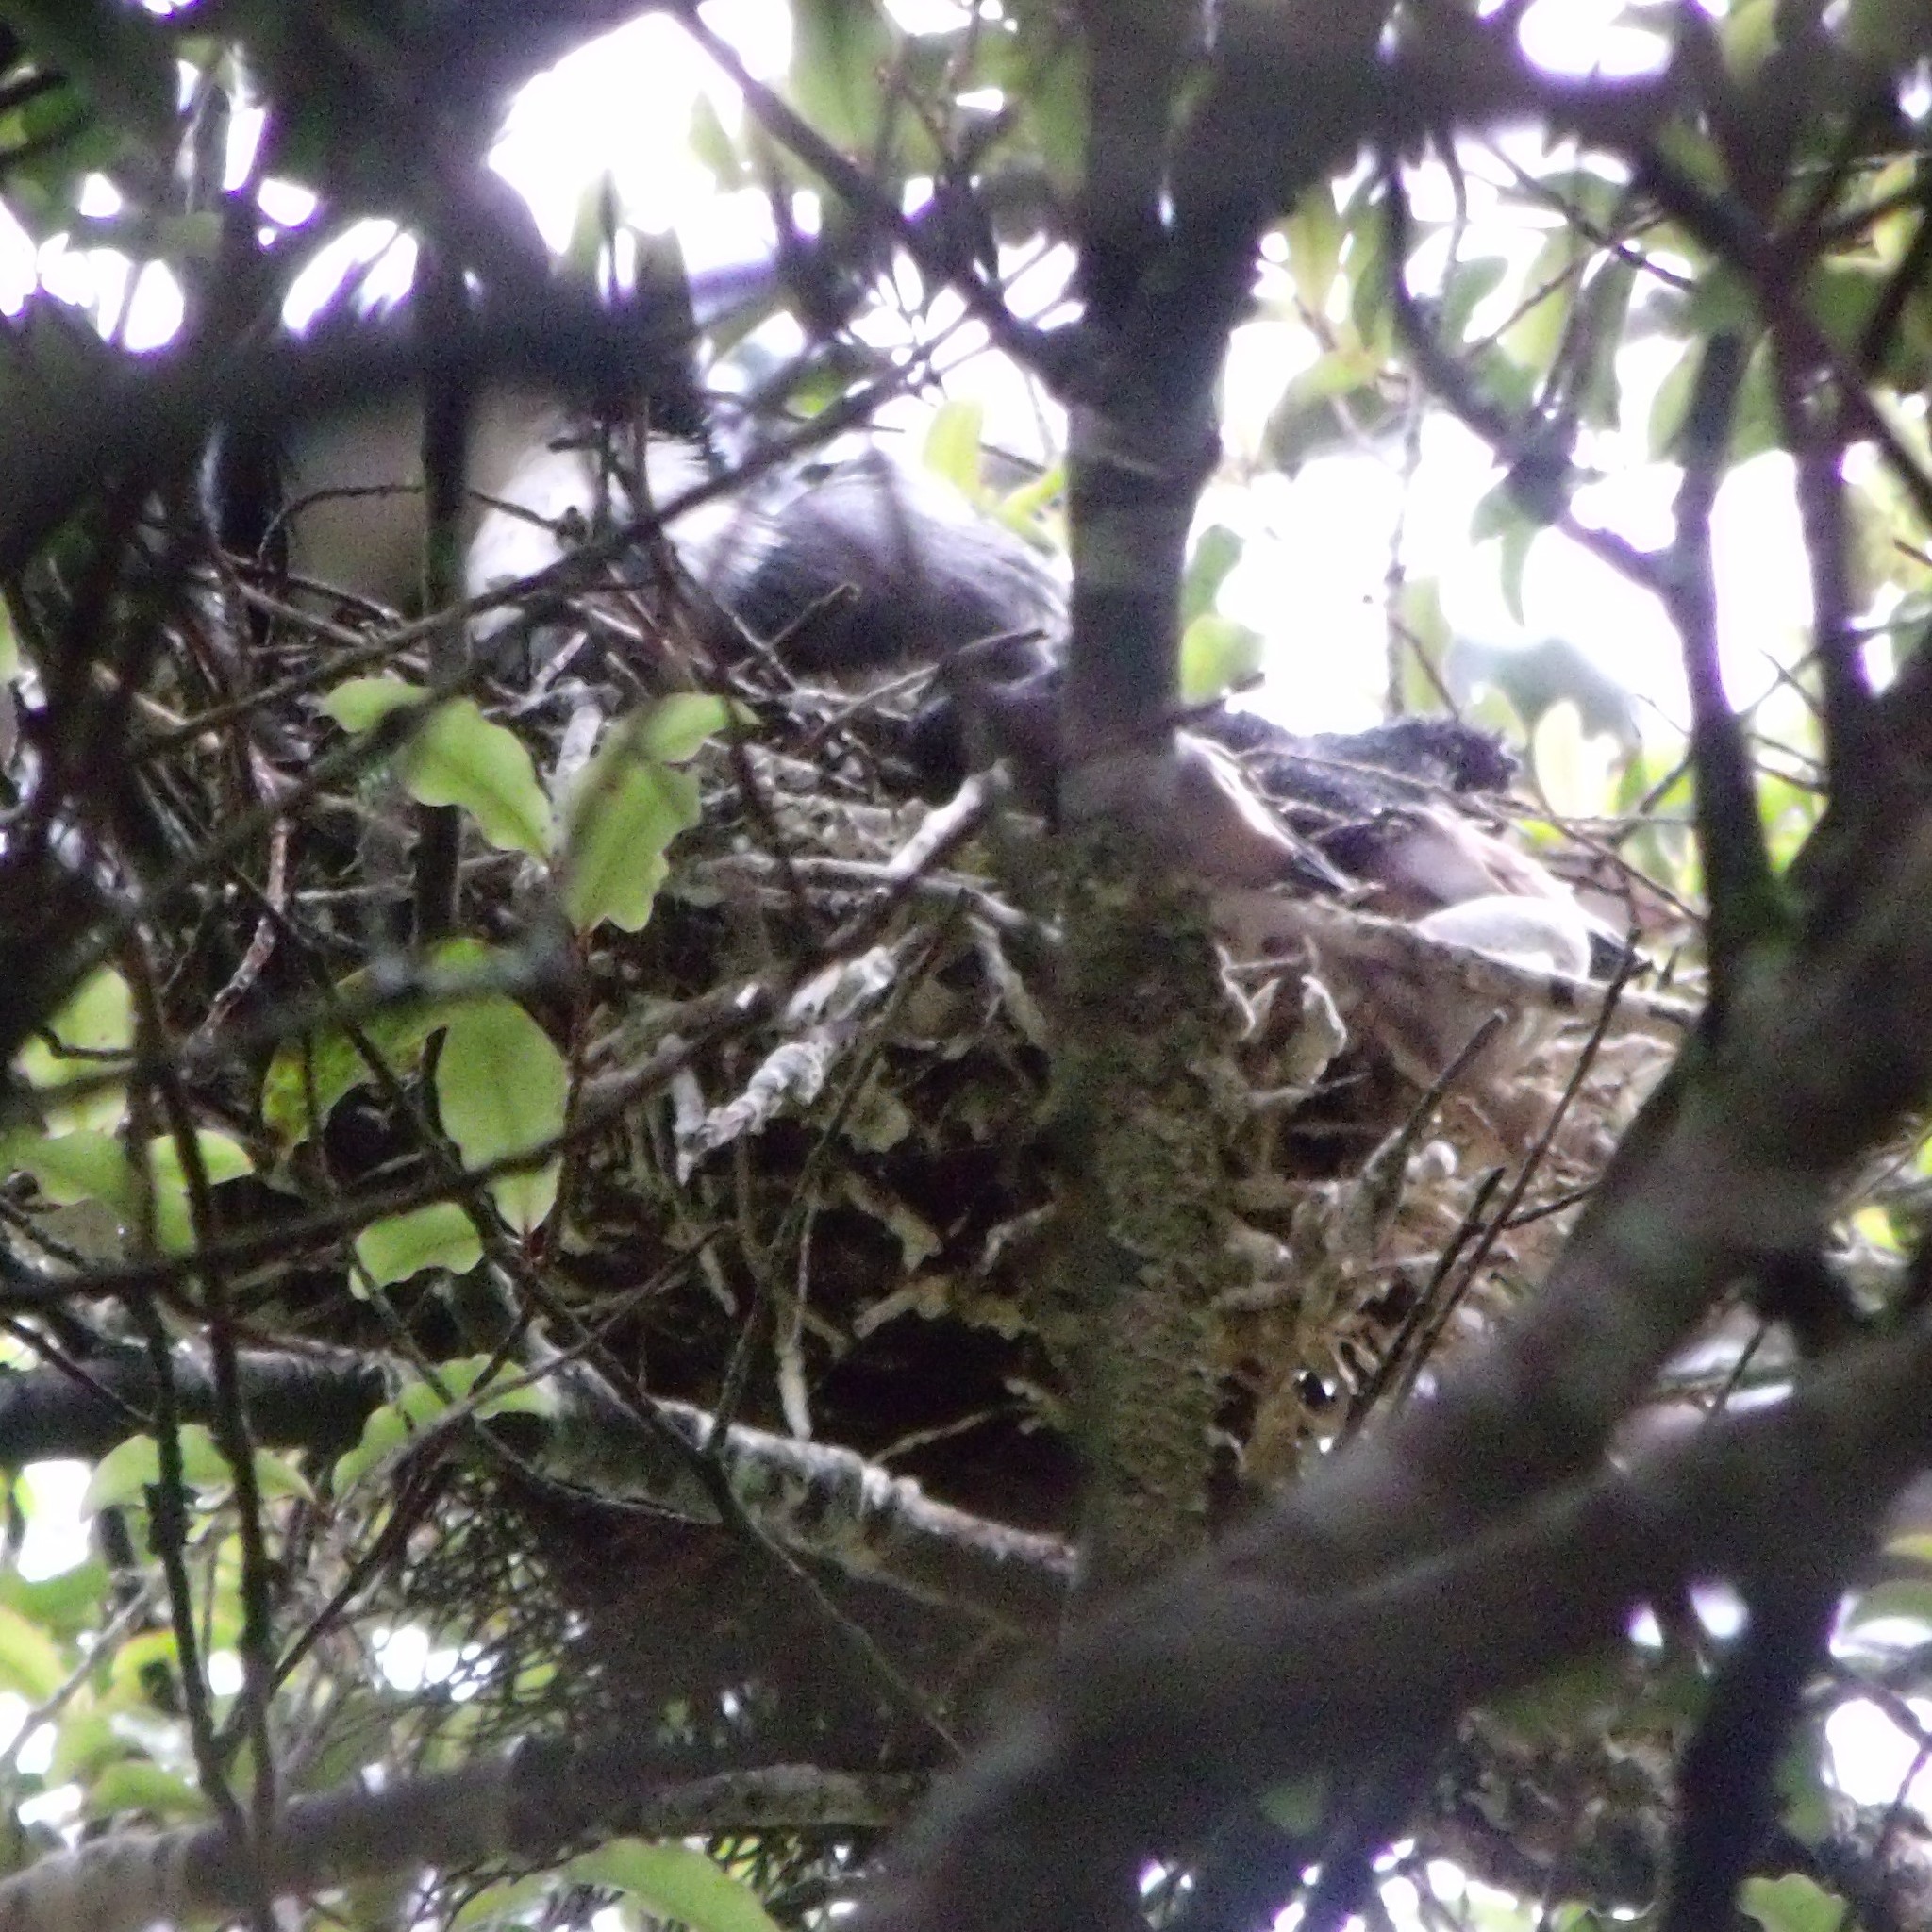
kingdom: Animalia
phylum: Chordata
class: Aves
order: Suliformes
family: Phalacrocoracidae
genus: Microcarbo
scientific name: Microcarbo melanoleucos
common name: Little pied cormorant
